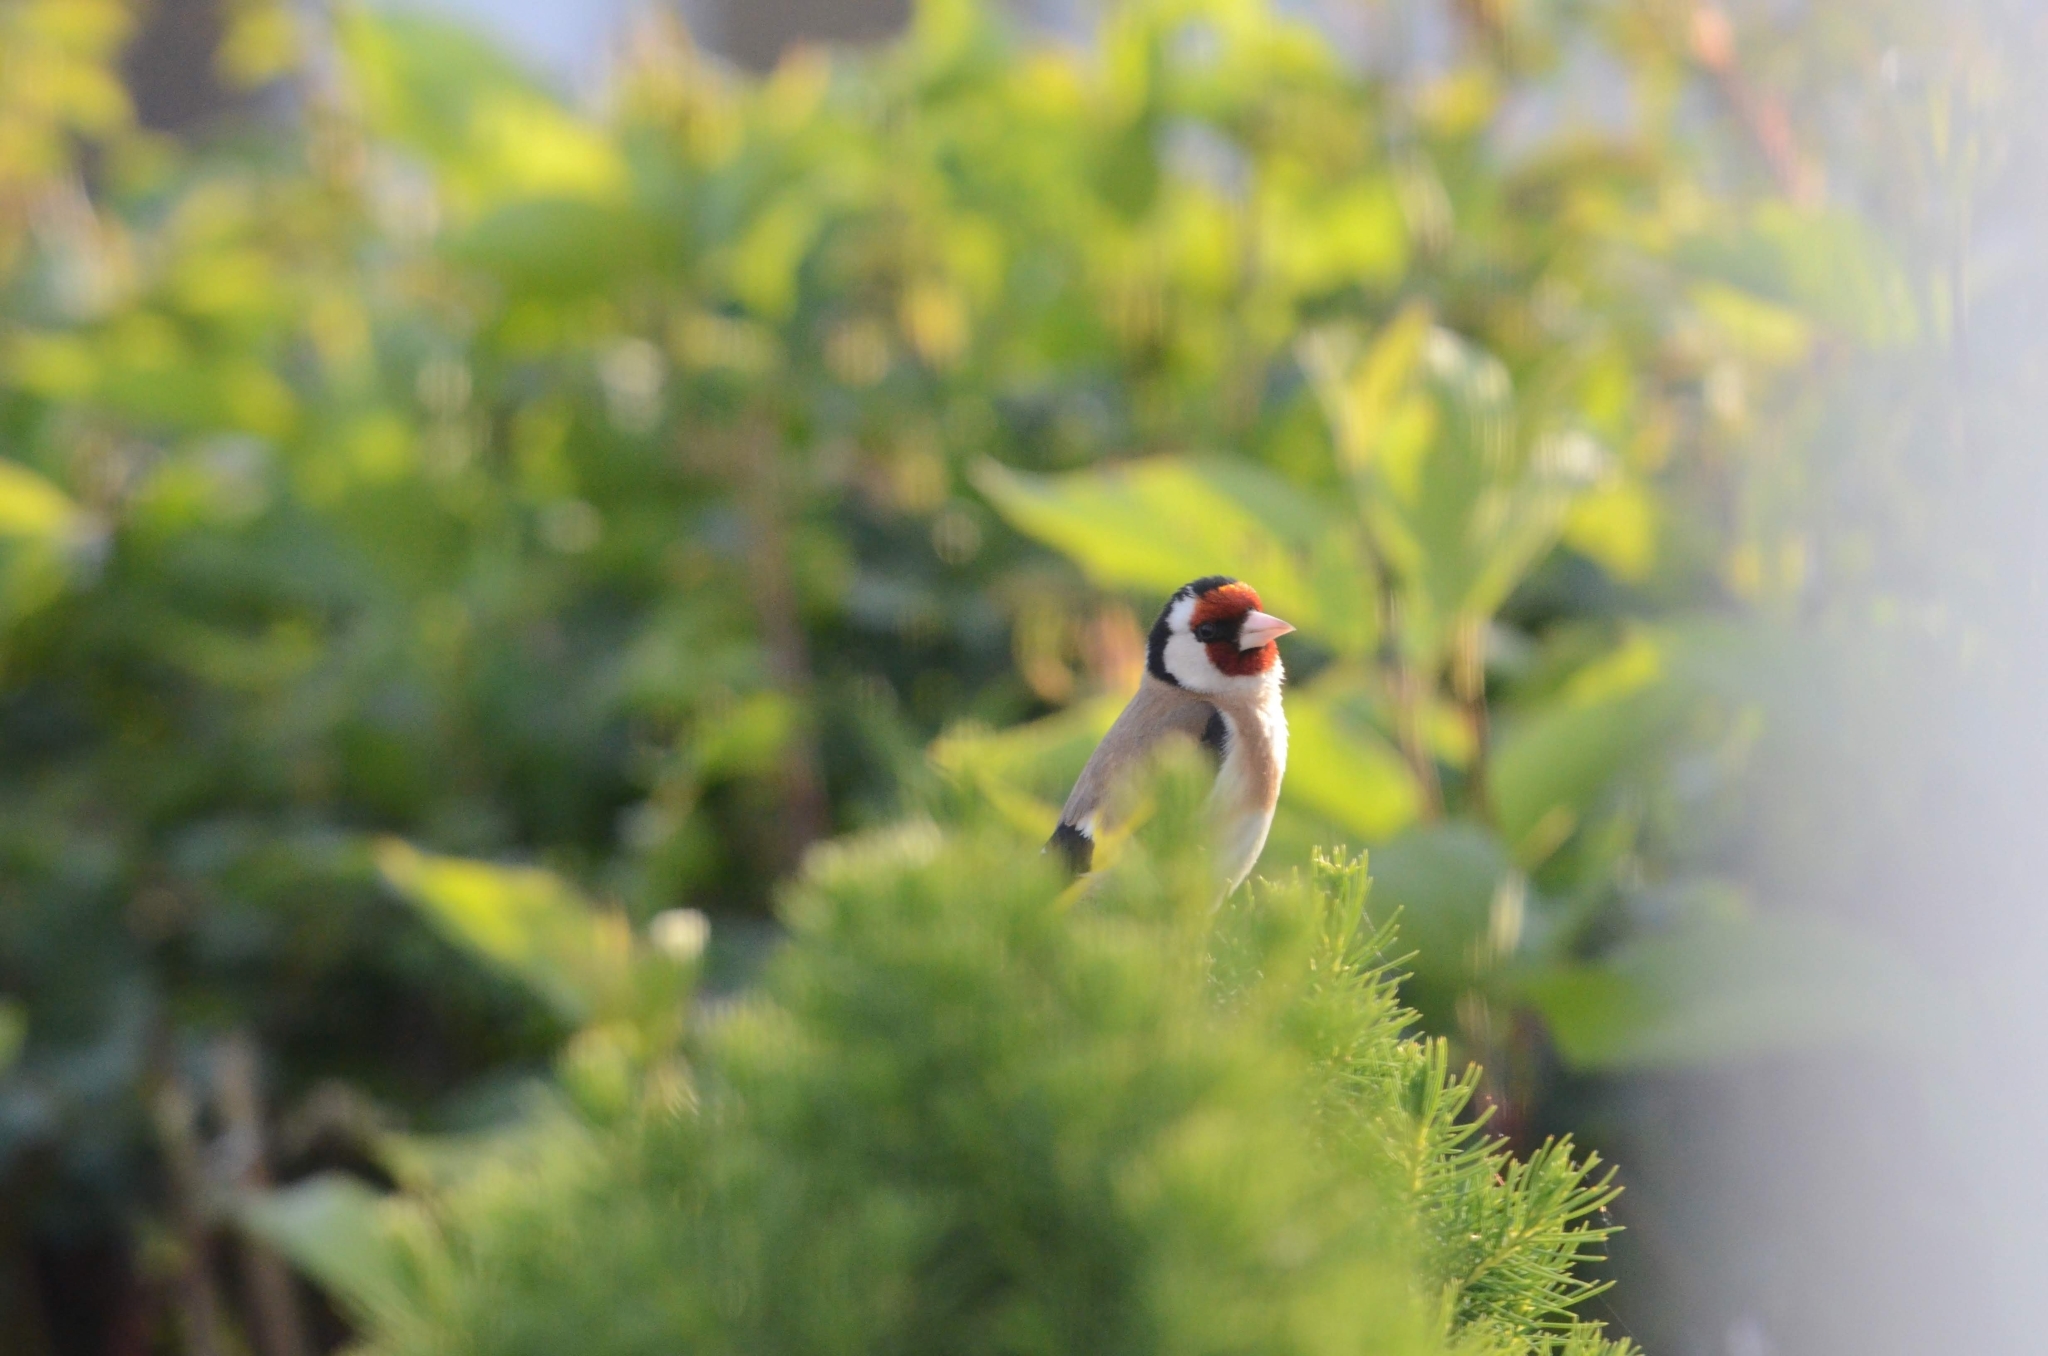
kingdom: Animalia
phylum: Chordata
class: Aves
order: Passeriformes
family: Fringillidae
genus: Carduelis
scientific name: Carduelis carduelis
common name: European goldfinch
